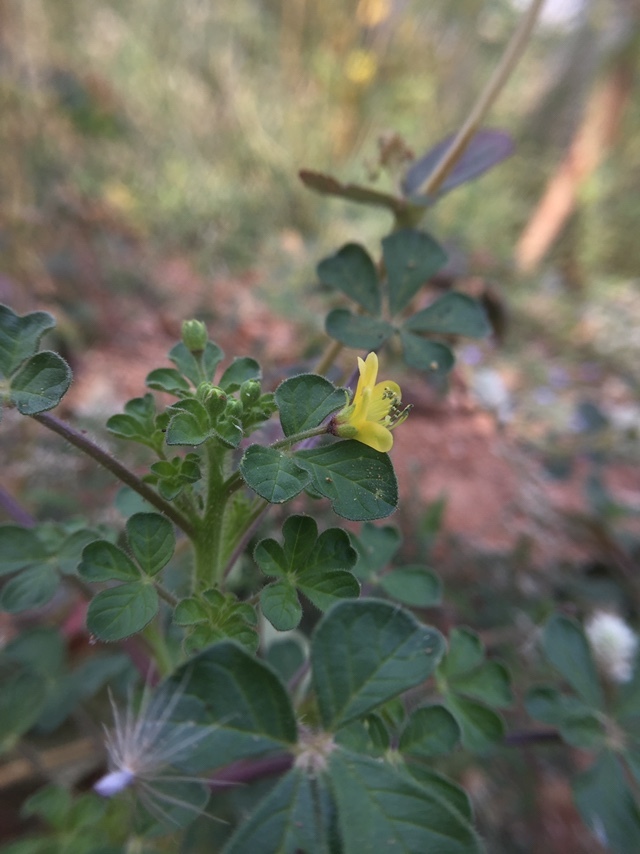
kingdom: Plantae
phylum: Tracheophyta
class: Magnoliopsida
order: Brassicales
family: Cleomaceae
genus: Arivela
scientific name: Arivela viscosa
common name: Asian spiderflower
